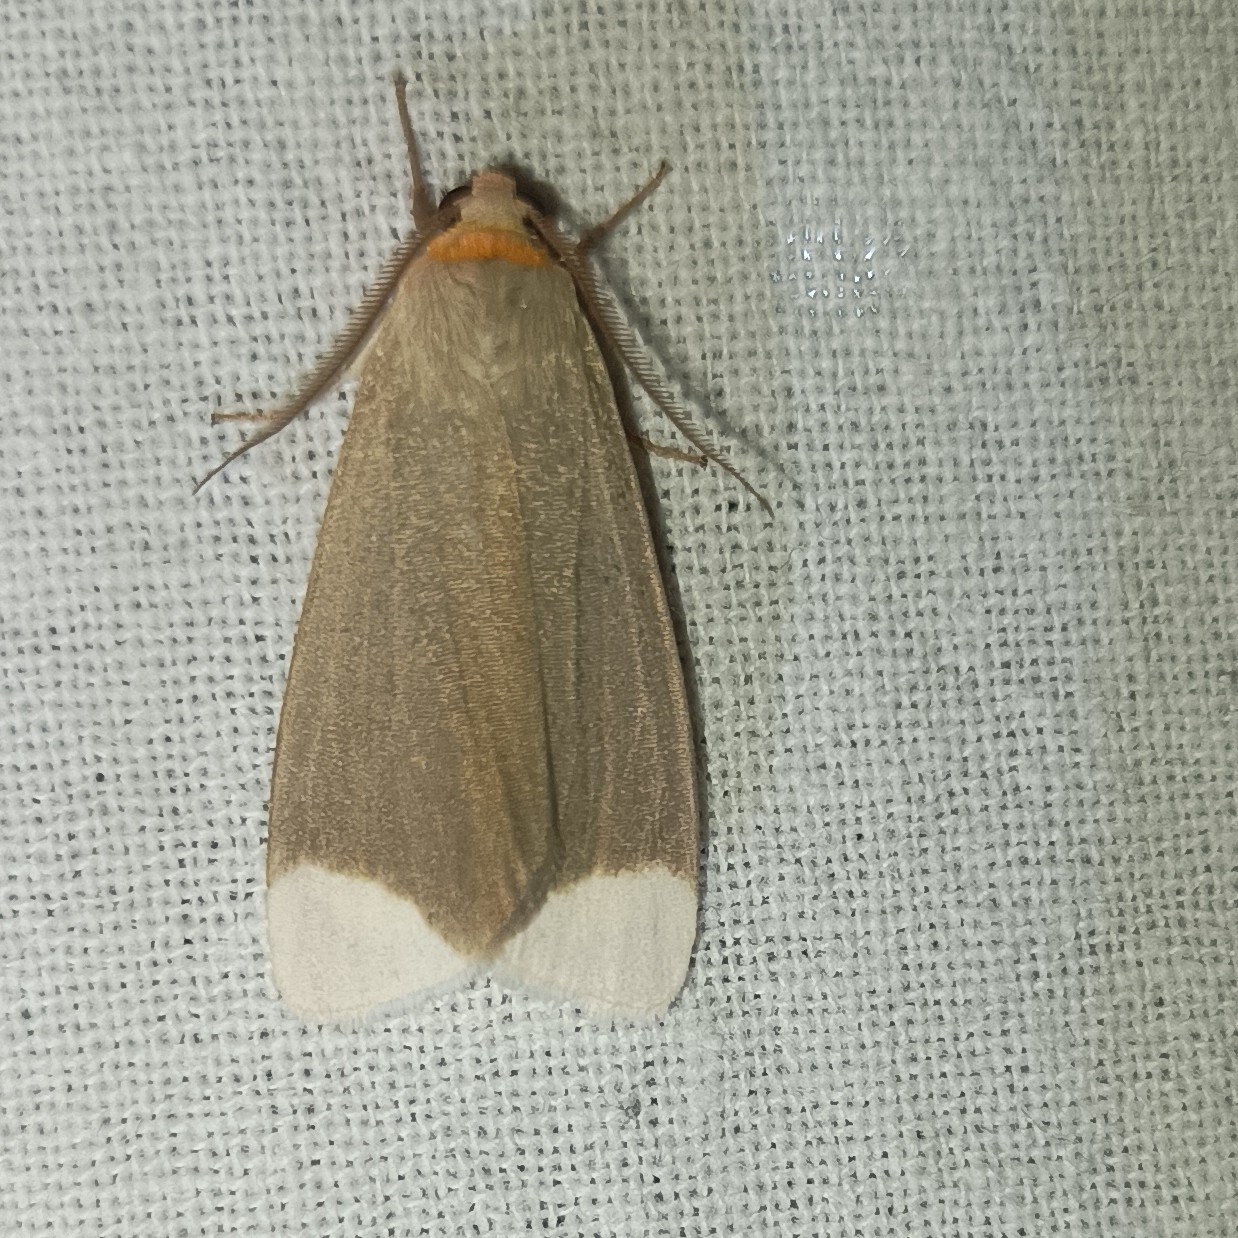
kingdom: Animalia
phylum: Arthropoda
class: Insecta
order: Lepidoptera
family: Erebidae
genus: Sidyma
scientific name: Sidyma albifinis
